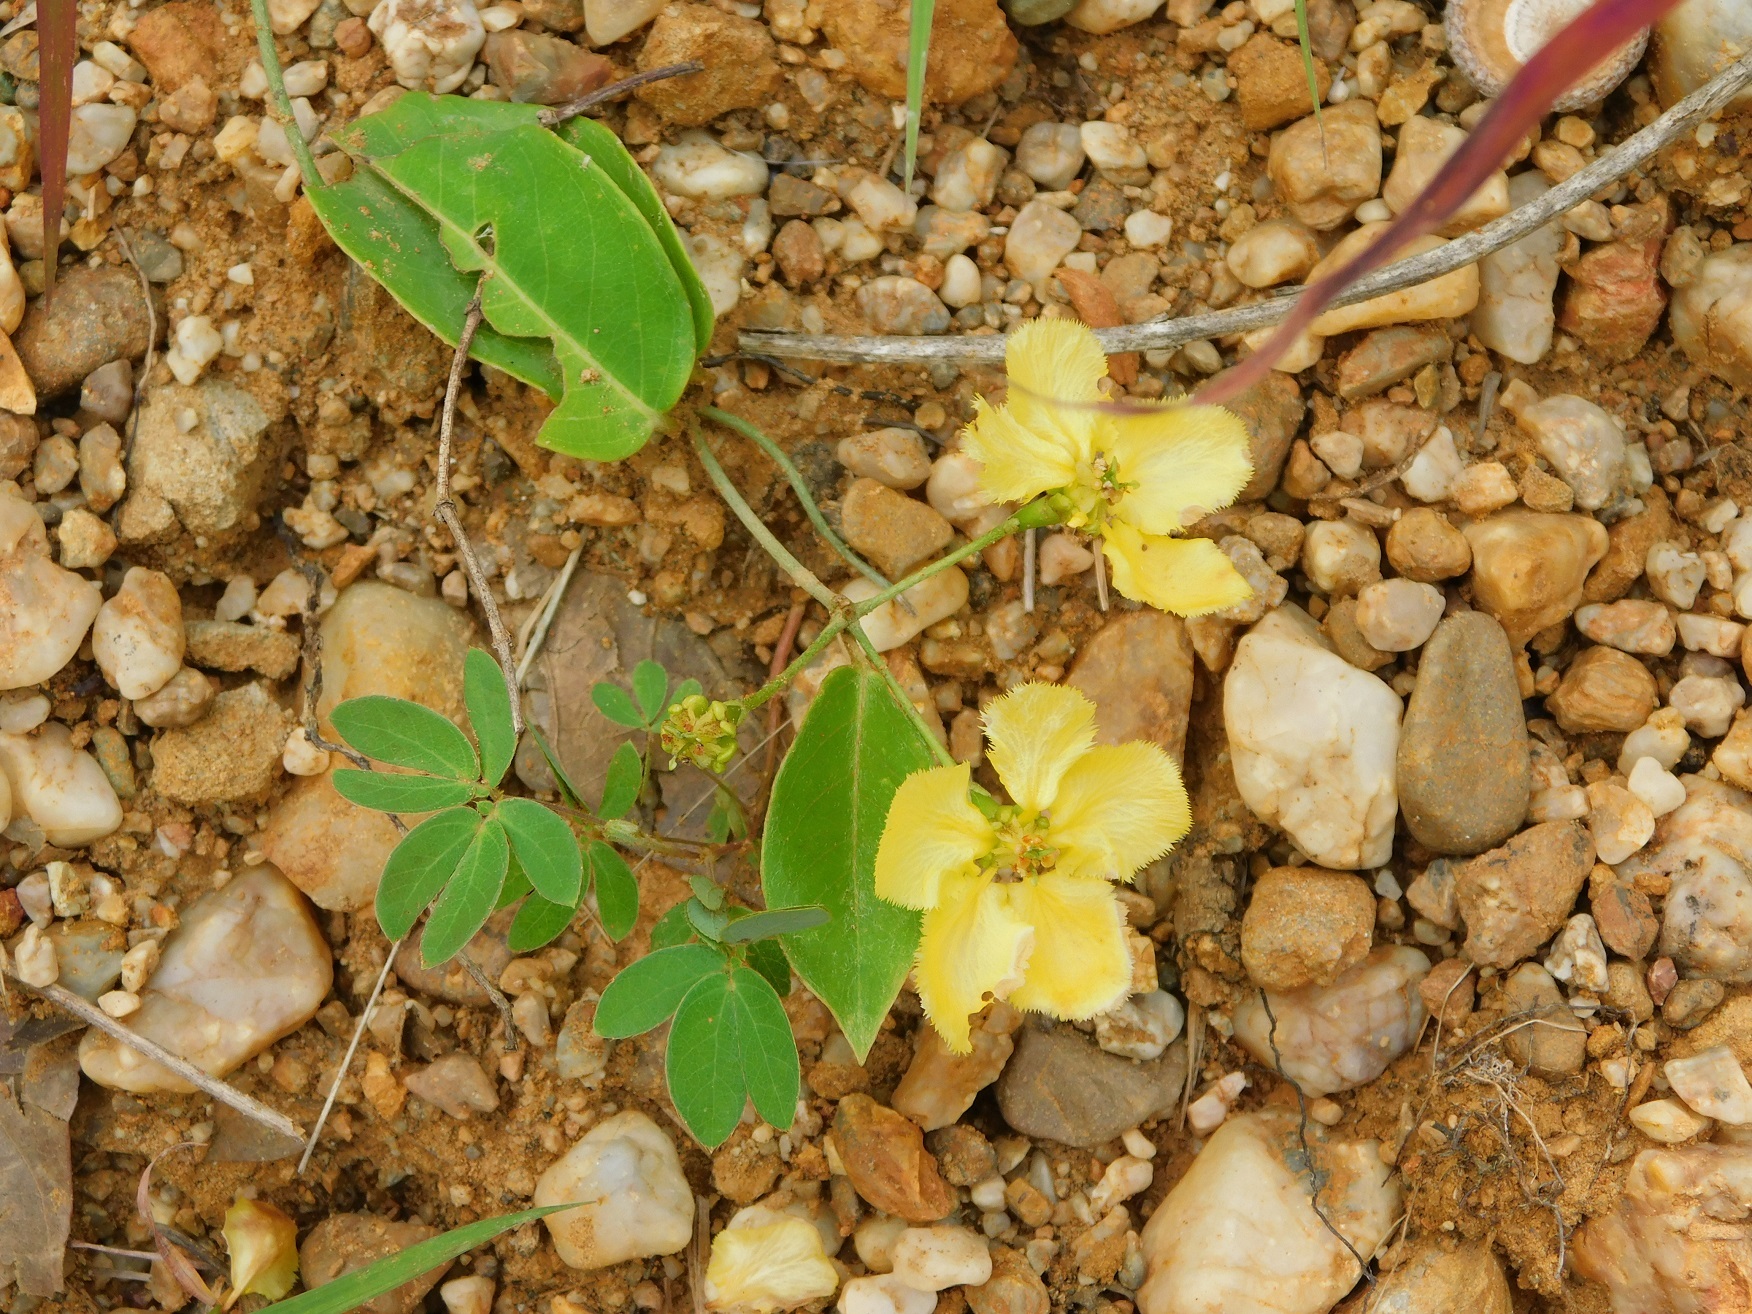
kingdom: Plantae
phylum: Tracheophyta
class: Magnoliopsida
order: Malpighiales
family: Malpighiaceae
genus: Stigmaphyllon
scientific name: Stigmaphyllon ellipticum
